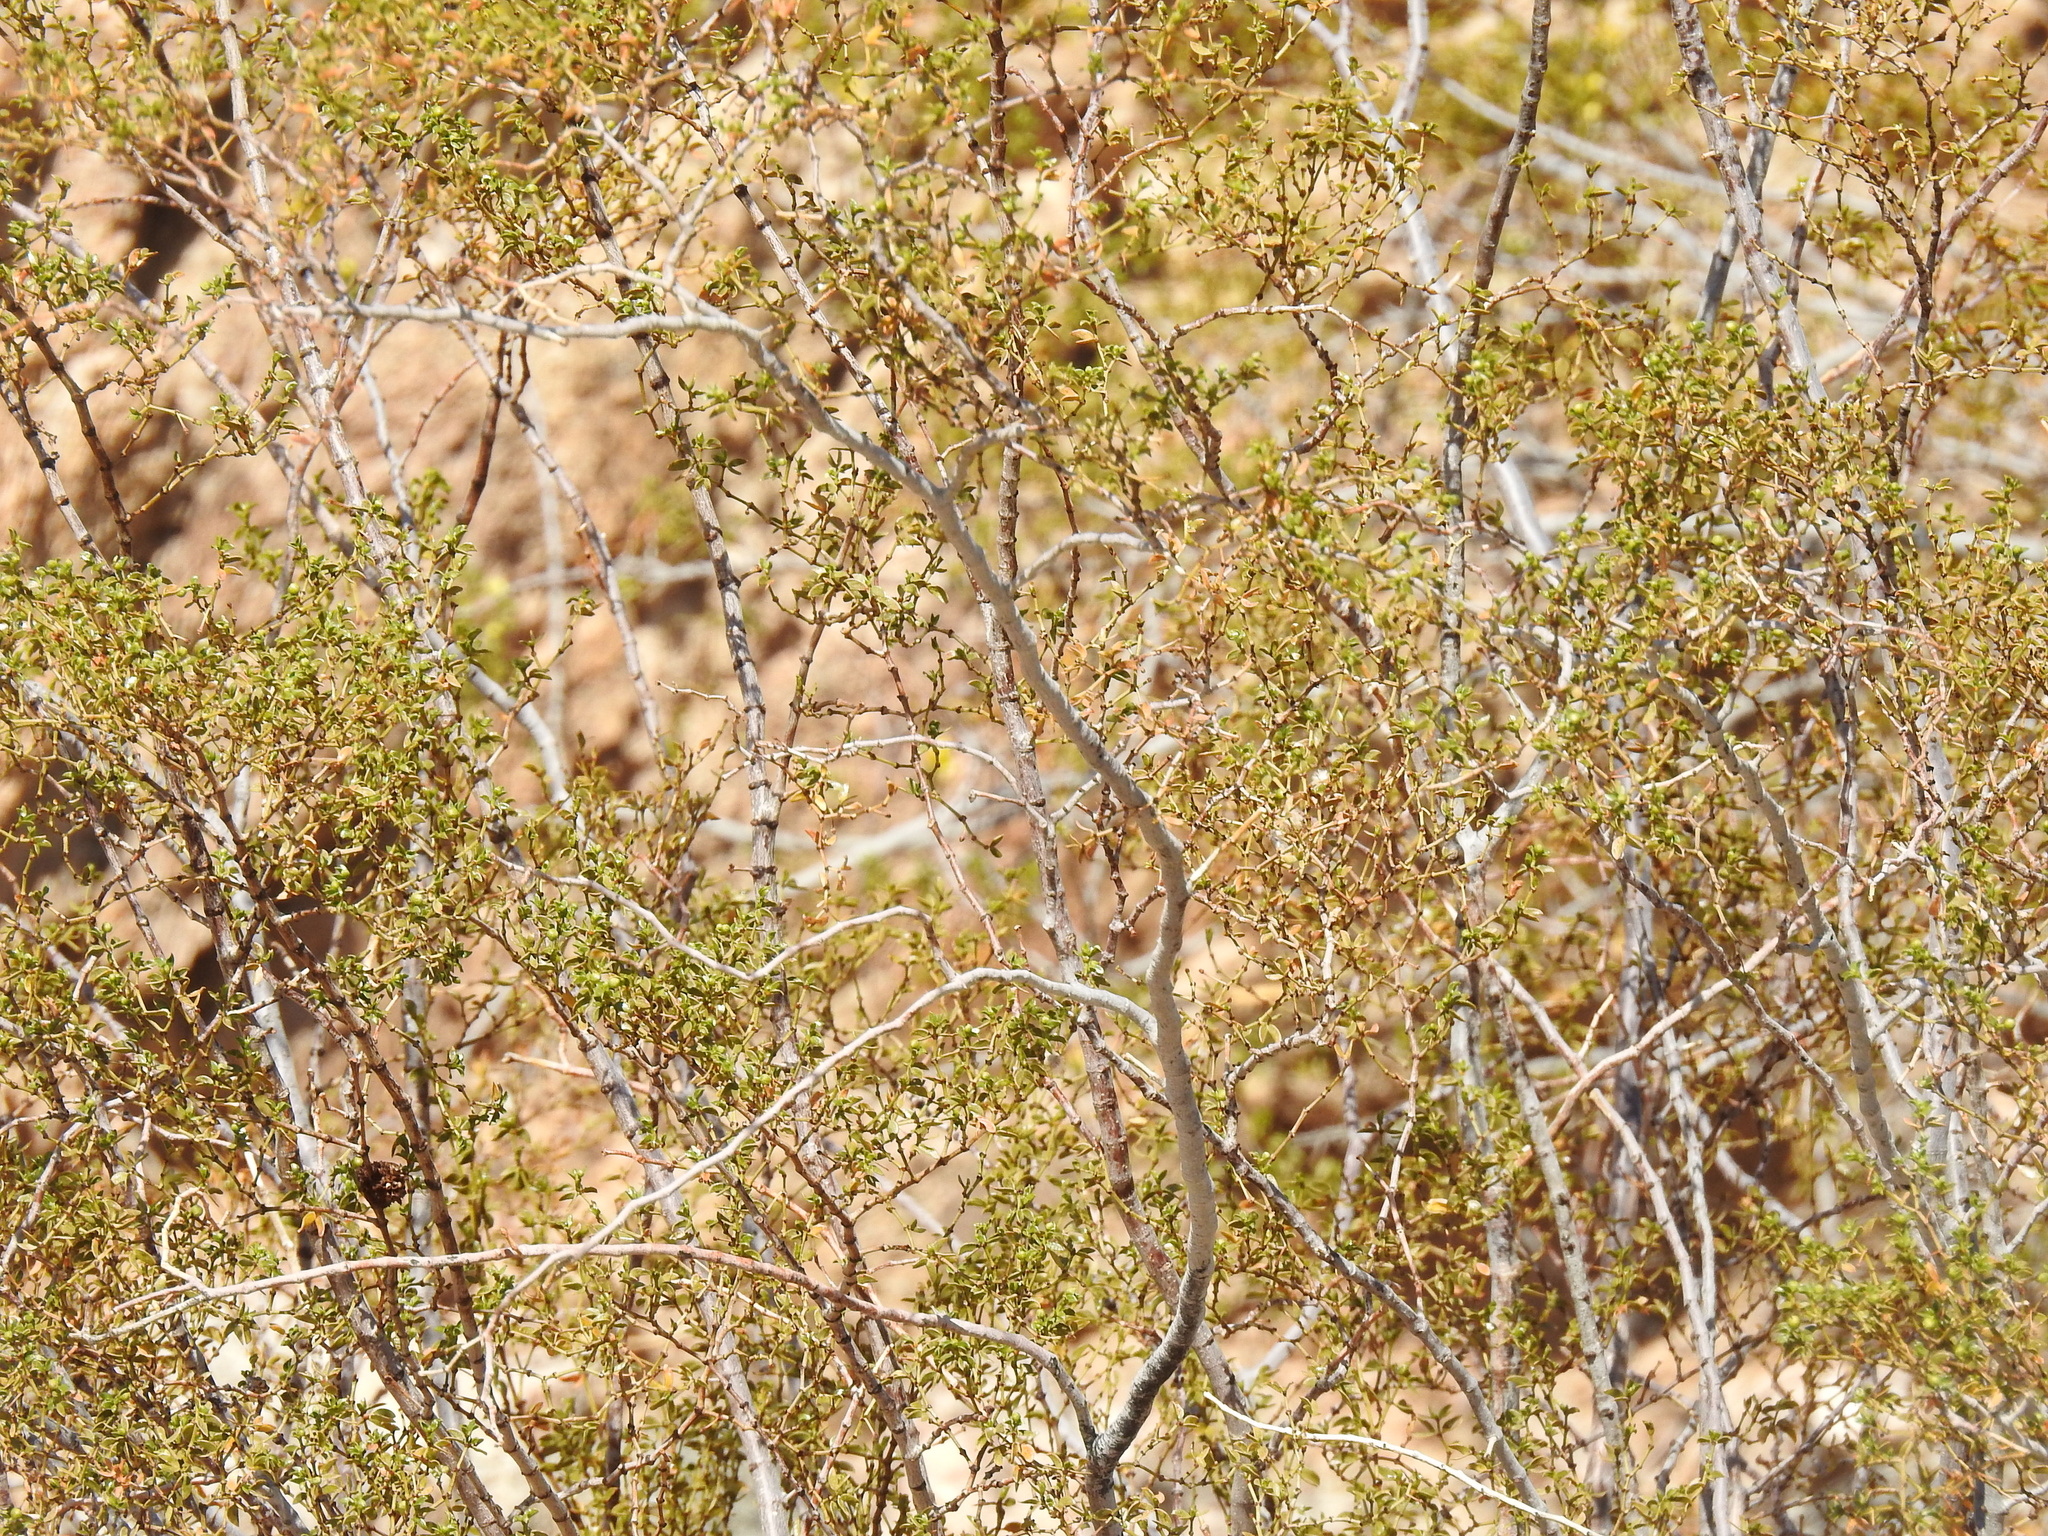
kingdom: Plantae
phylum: Tracheophyta
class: Magnoliopsida
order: Zygophyllales
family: Zygophyllaceae
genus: Larrea
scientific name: Larrea tridentata
